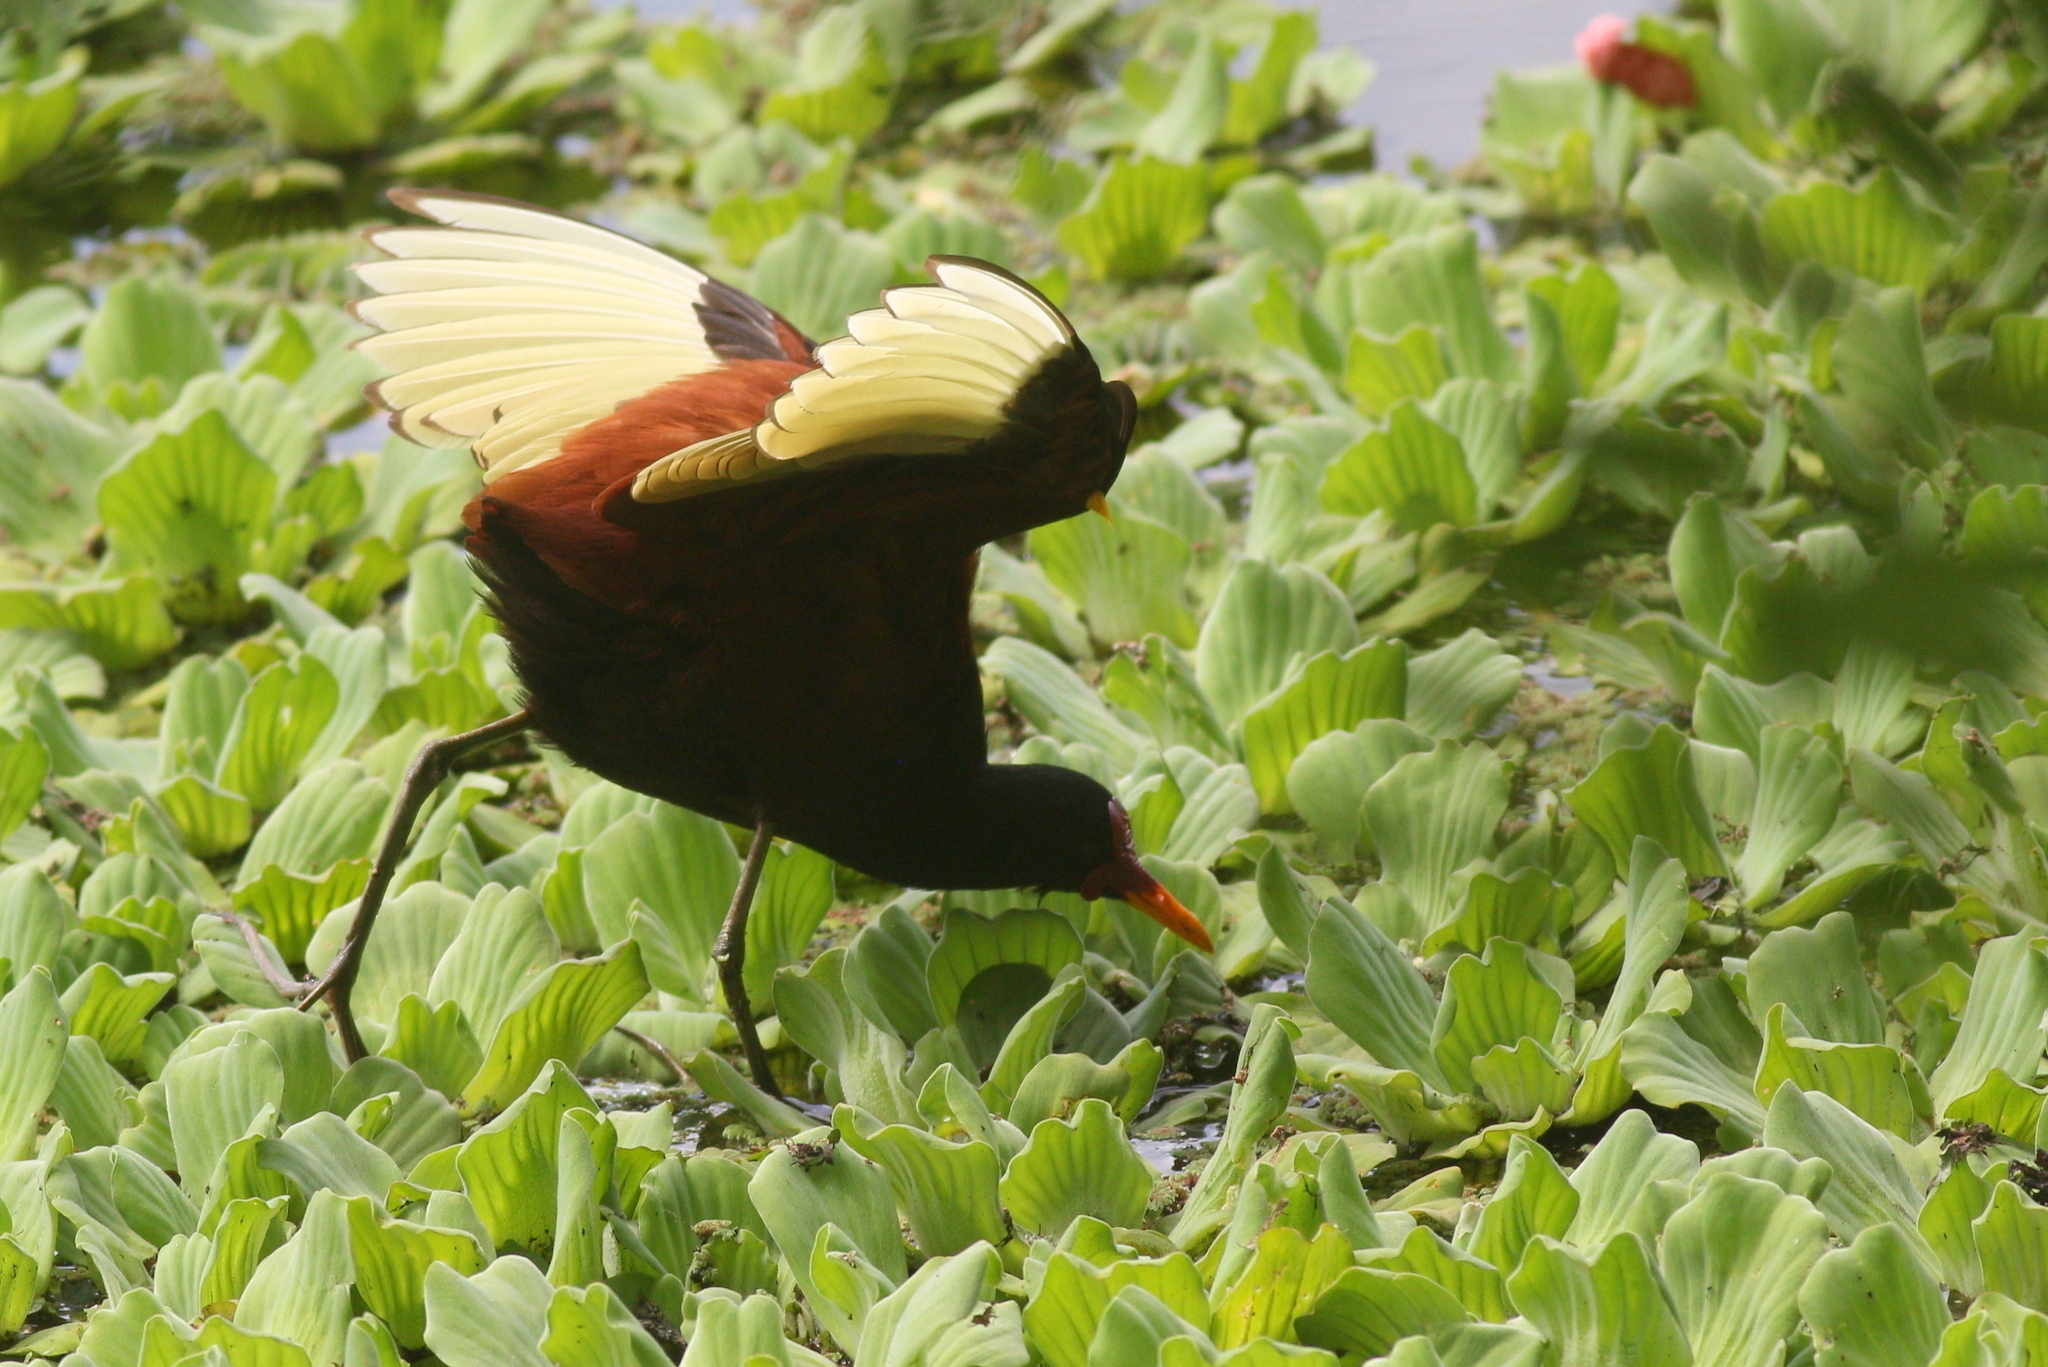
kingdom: Animalia
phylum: Chordata
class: Aves
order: Charadriiformes
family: Jacanidae
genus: Jacana
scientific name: Jacana jacana
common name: Wattled jacana
